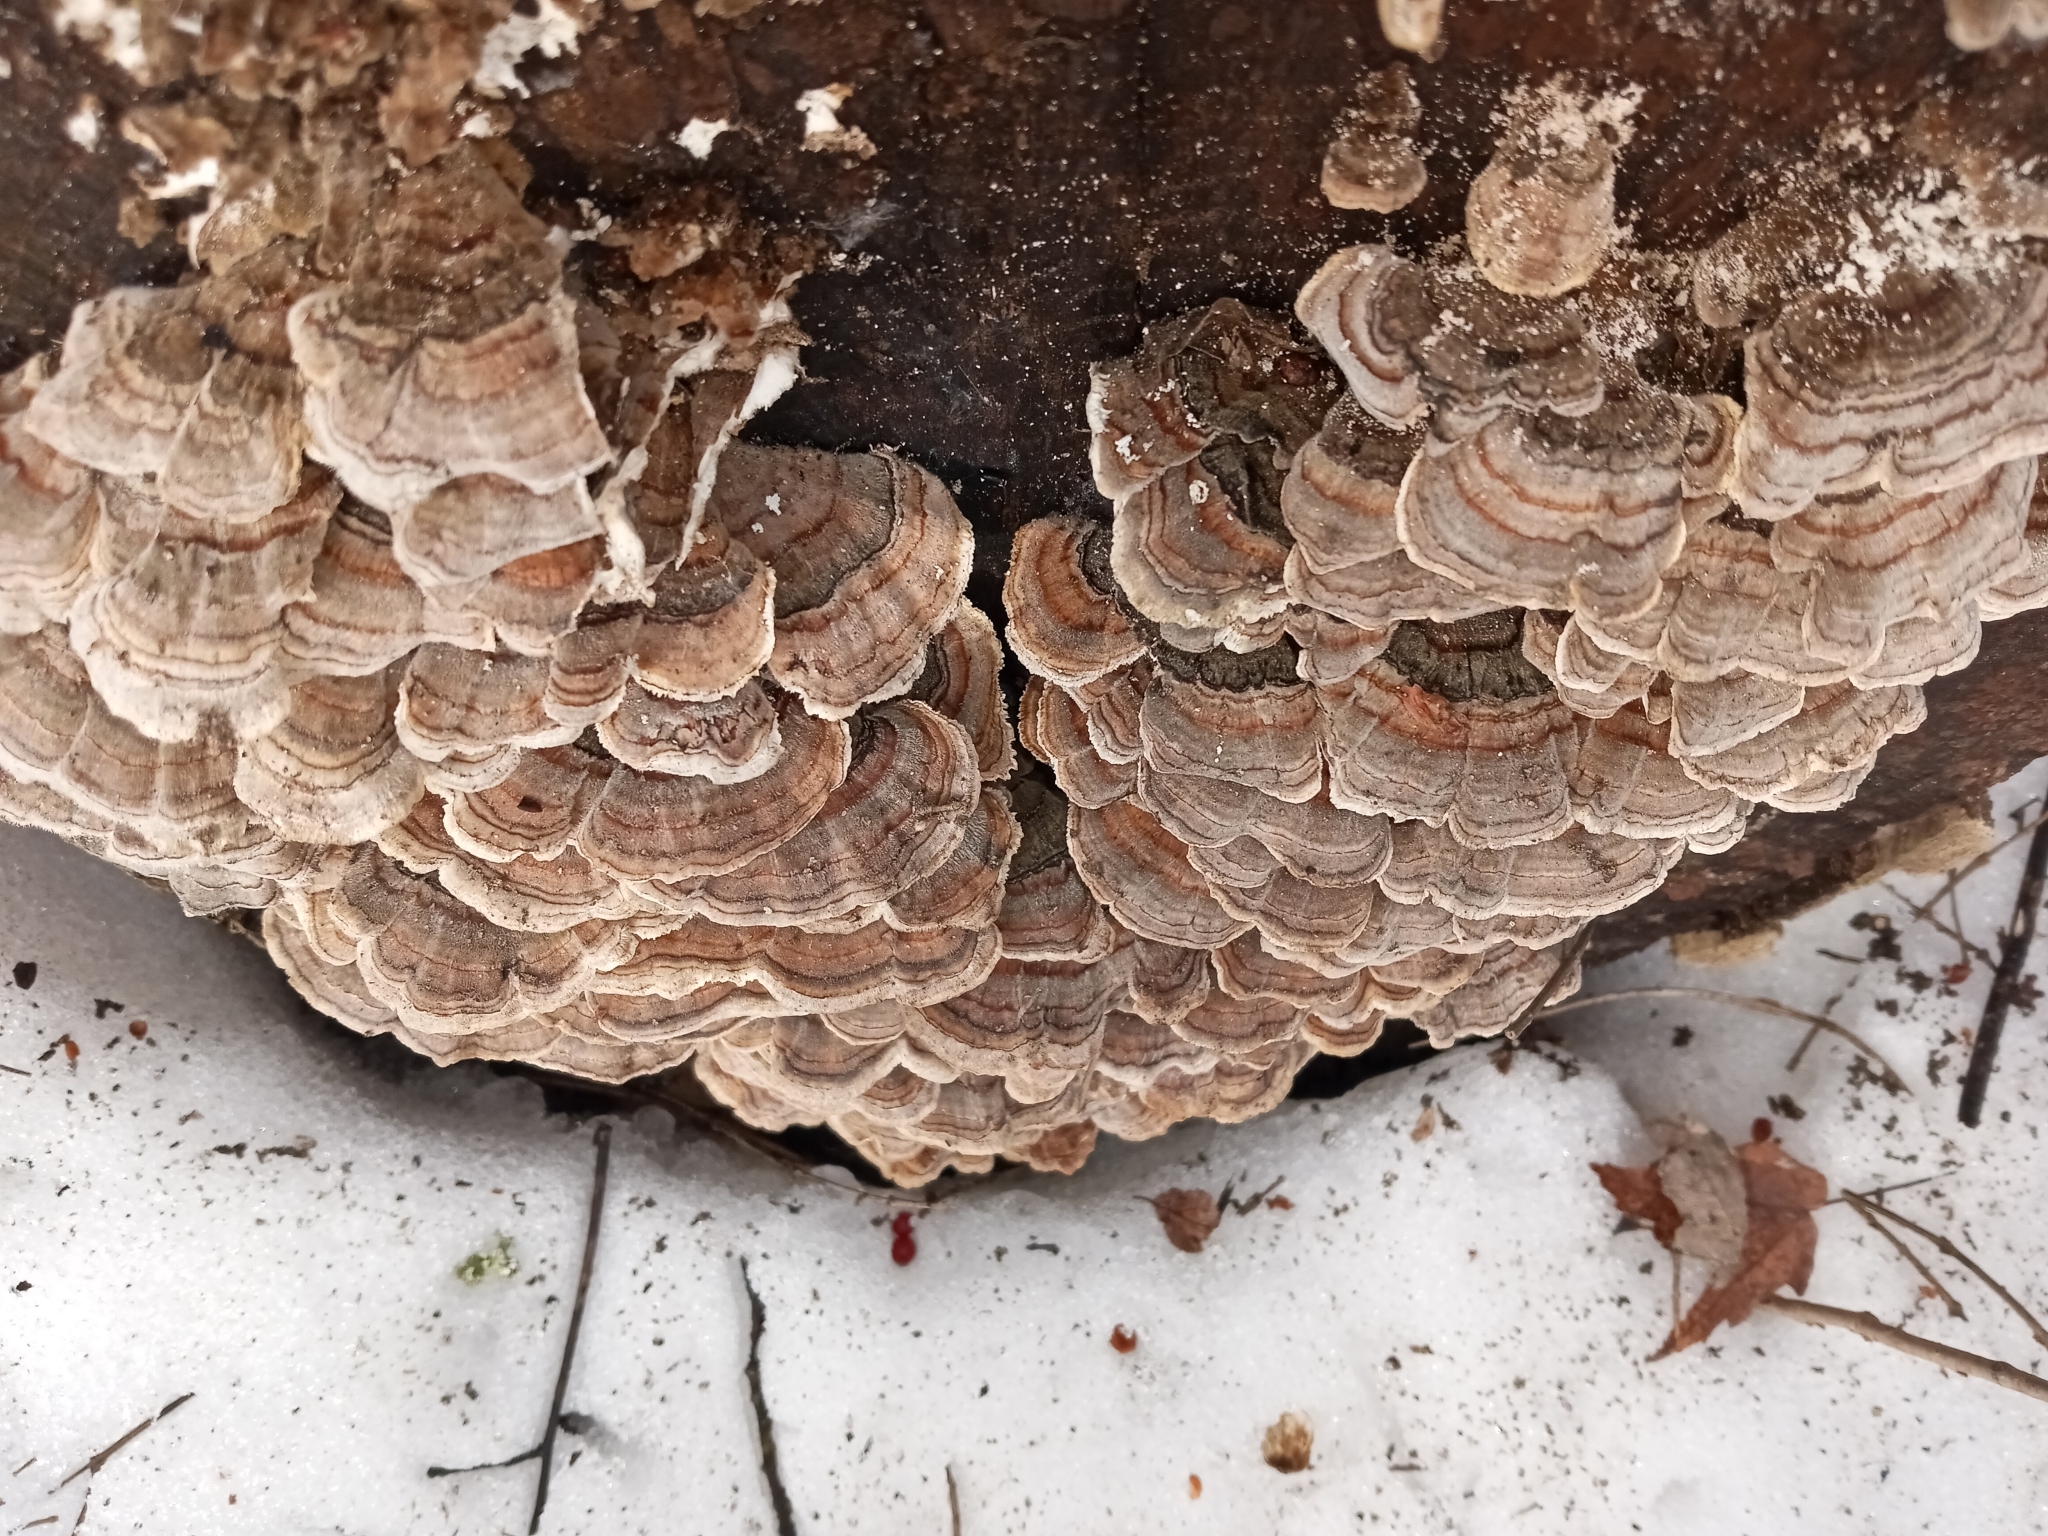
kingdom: Fungi
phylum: Basidiomycota
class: Agaricomycetes
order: Polyporales
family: Polyporaceae
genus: Trametes
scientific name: Trametes versicolor
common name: Turkeytail
